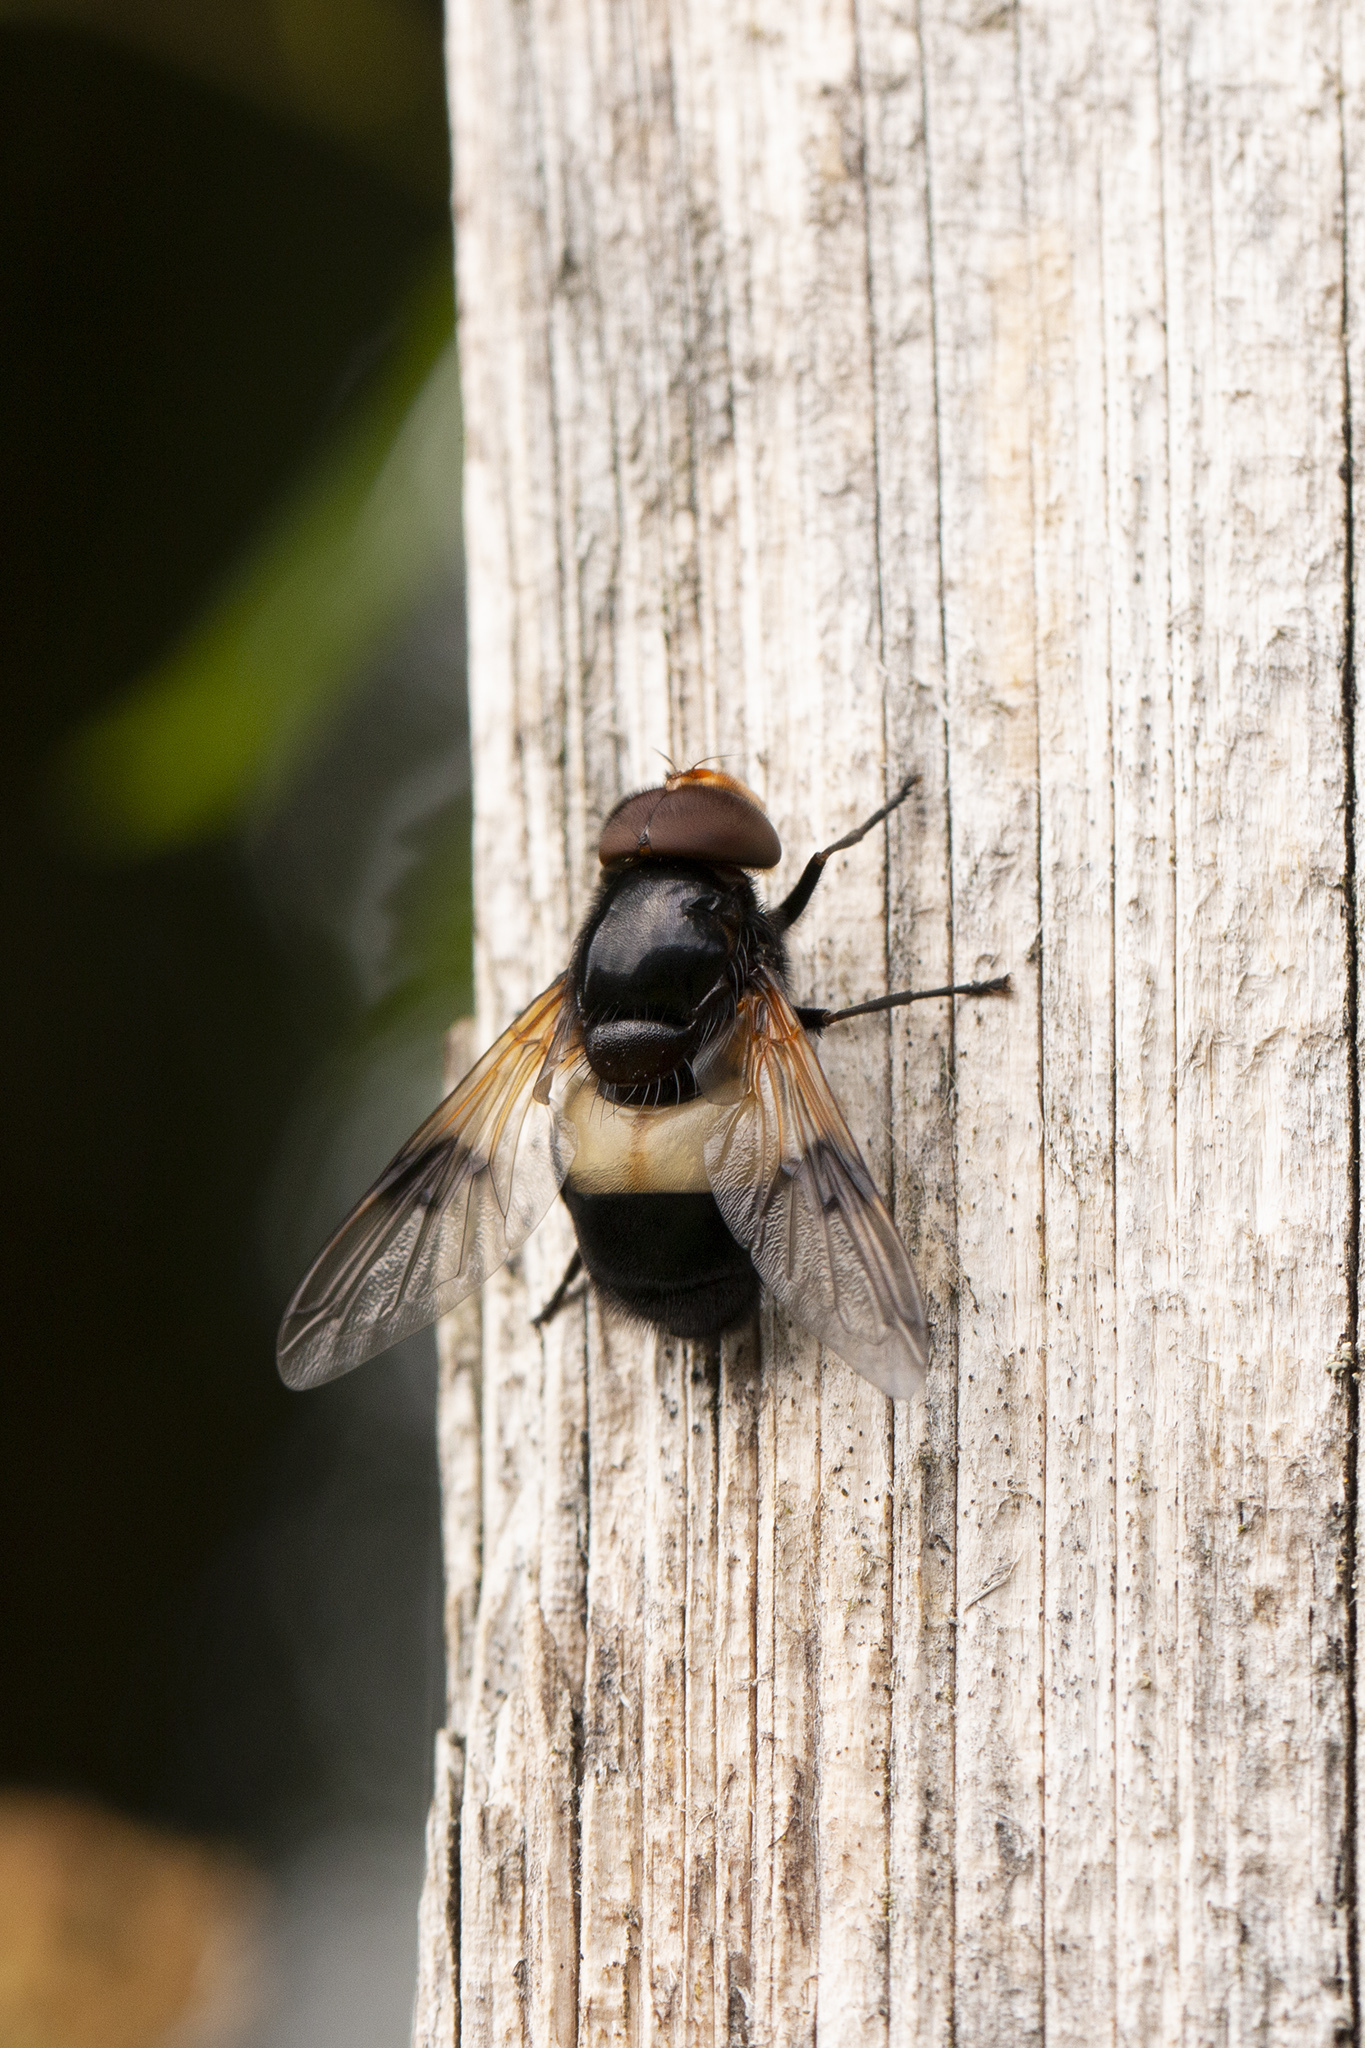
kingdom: Animalia
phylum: Arthropoda
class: Insecta
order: Diptera
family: Syrphidae
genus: Volucella
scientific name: Volucella pellucens
